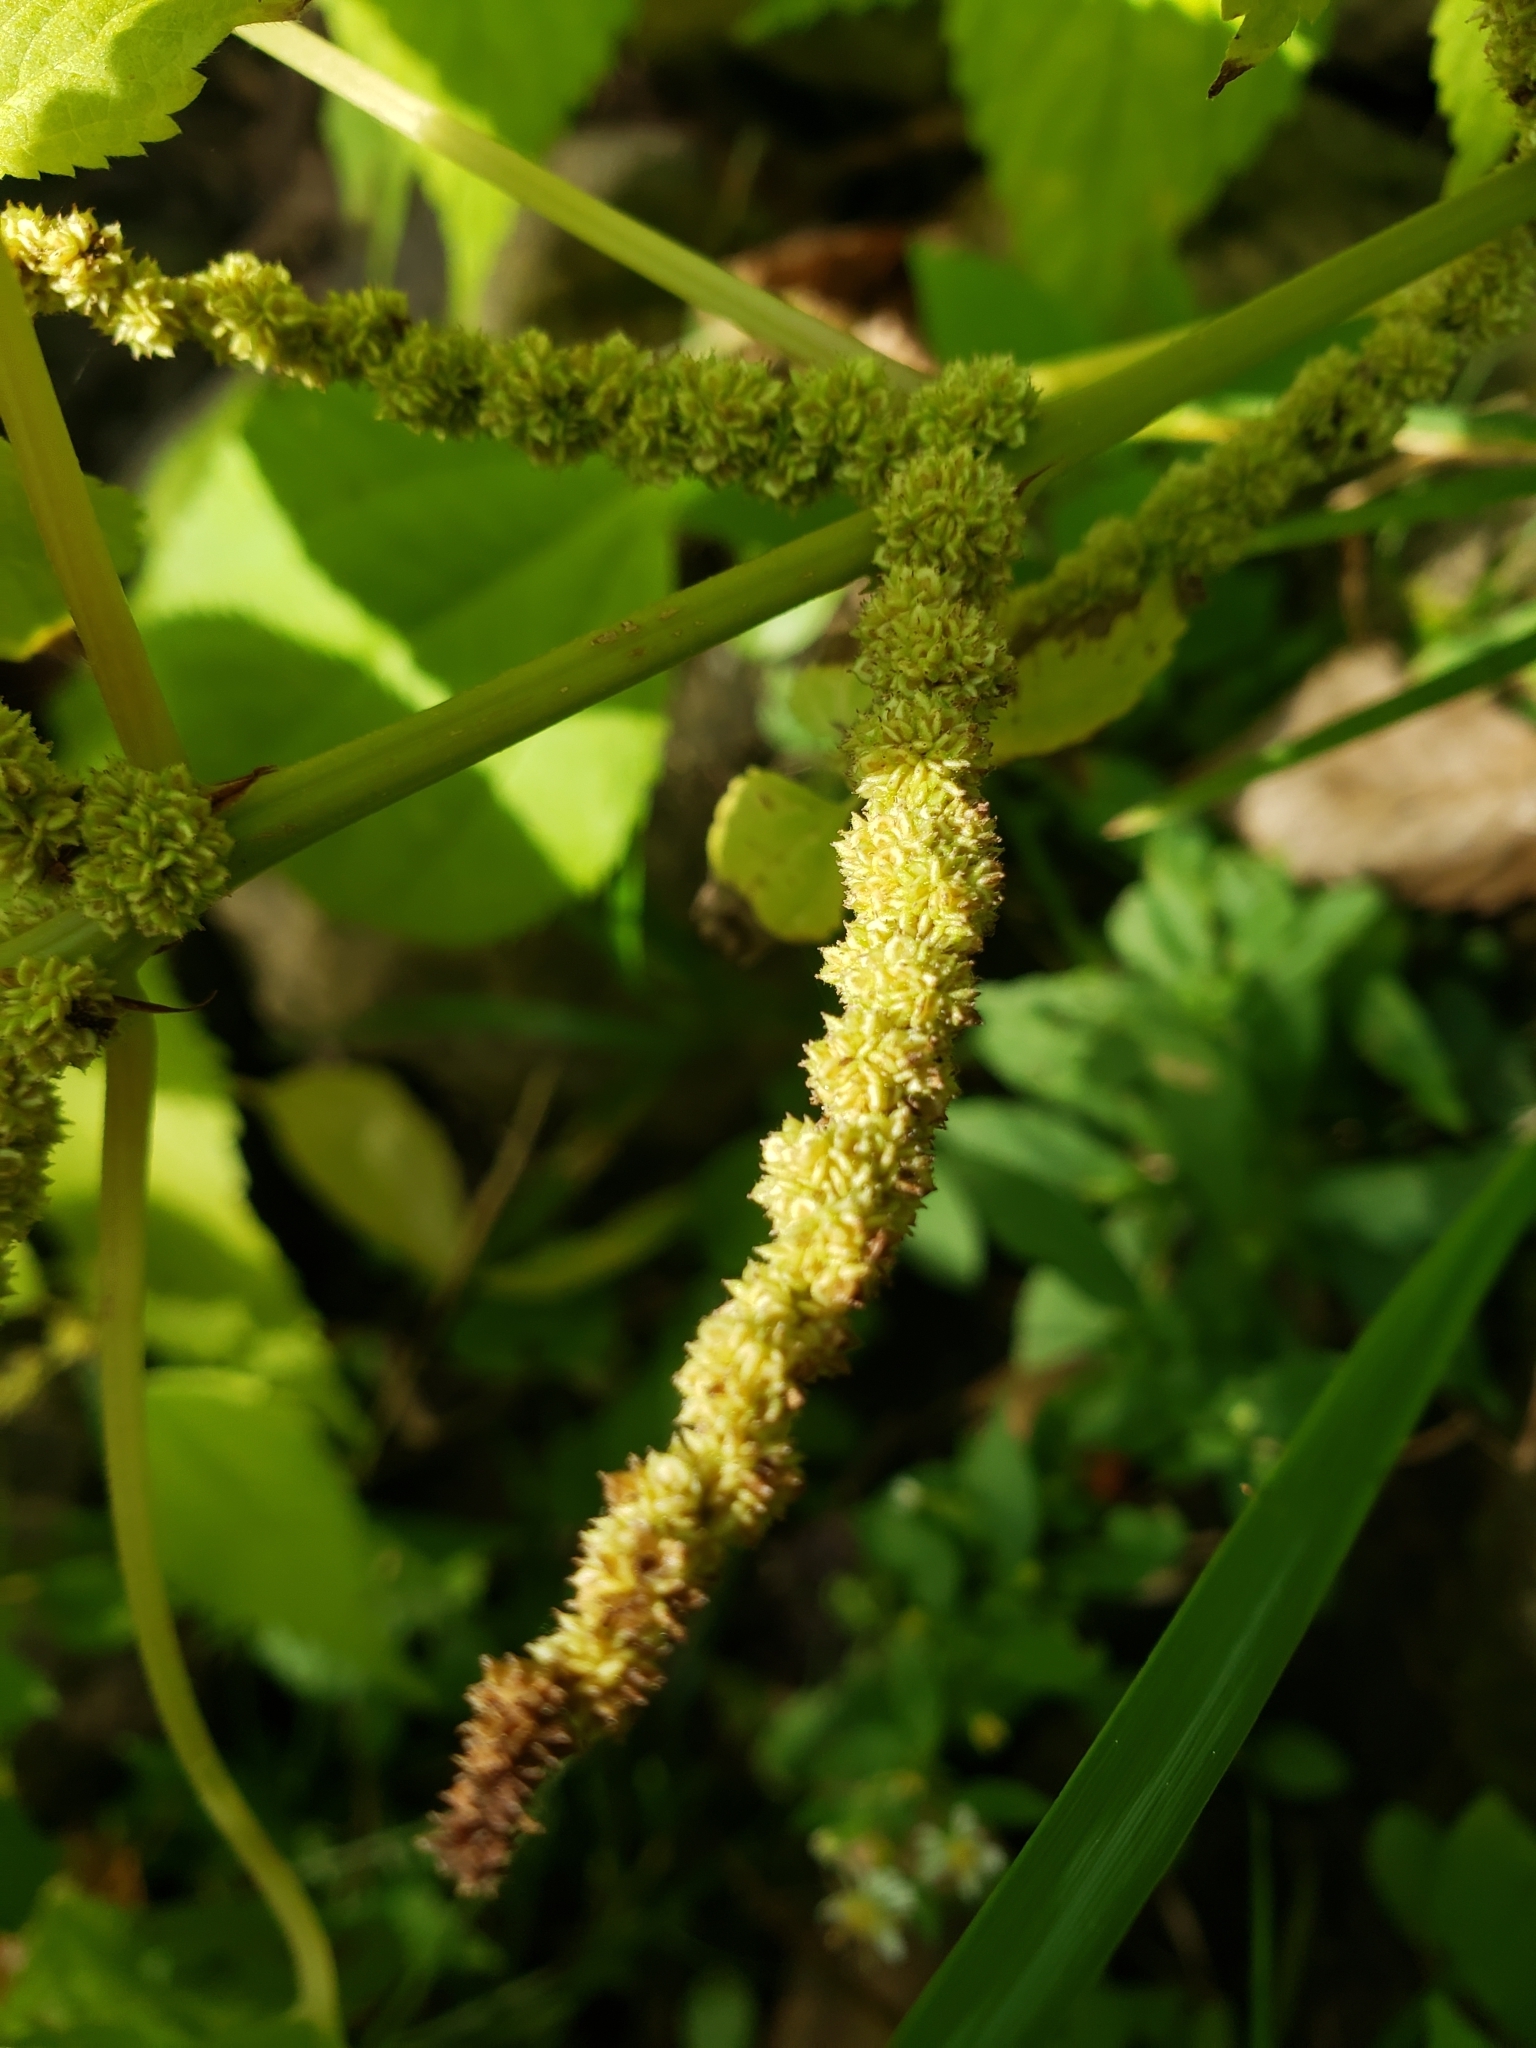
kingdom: Plantae
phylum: Tracheophyta
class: Magnoliopsida
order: Rosales
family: Urticaceae
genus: Boehmeria
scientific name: Boehmeria cylindrica
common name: Bog-hemp
